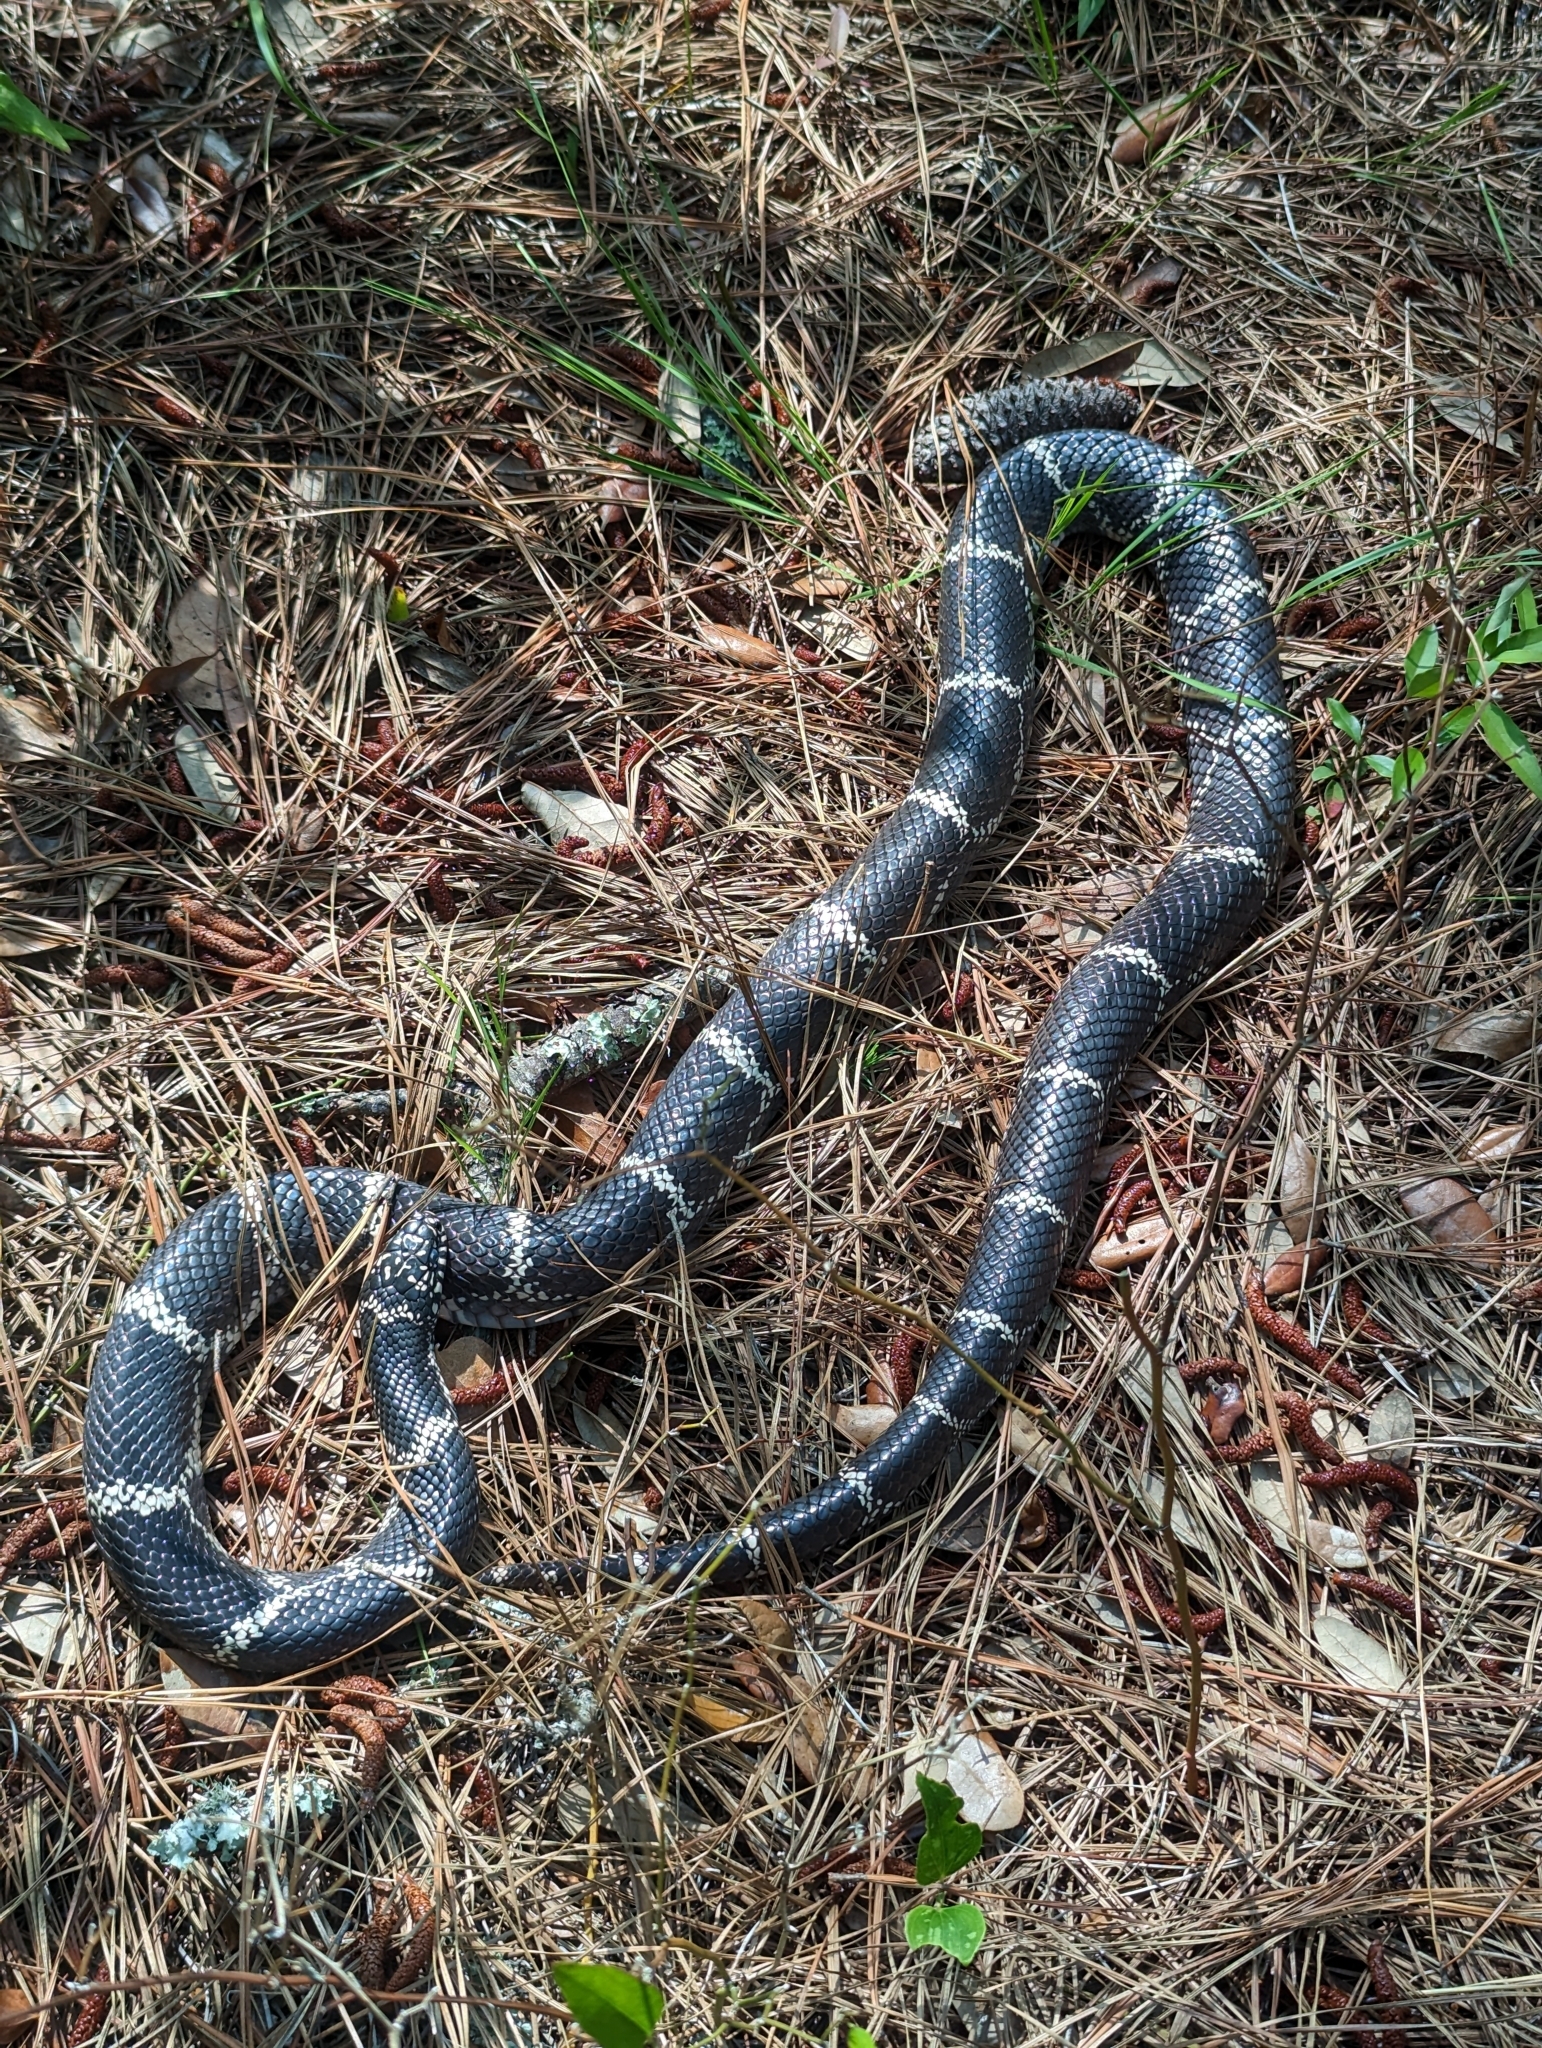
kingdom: Animalia
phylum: Chordata
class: Squamata
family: Colubridae
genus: Lampropeltis
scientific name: Lampropeltis getula
